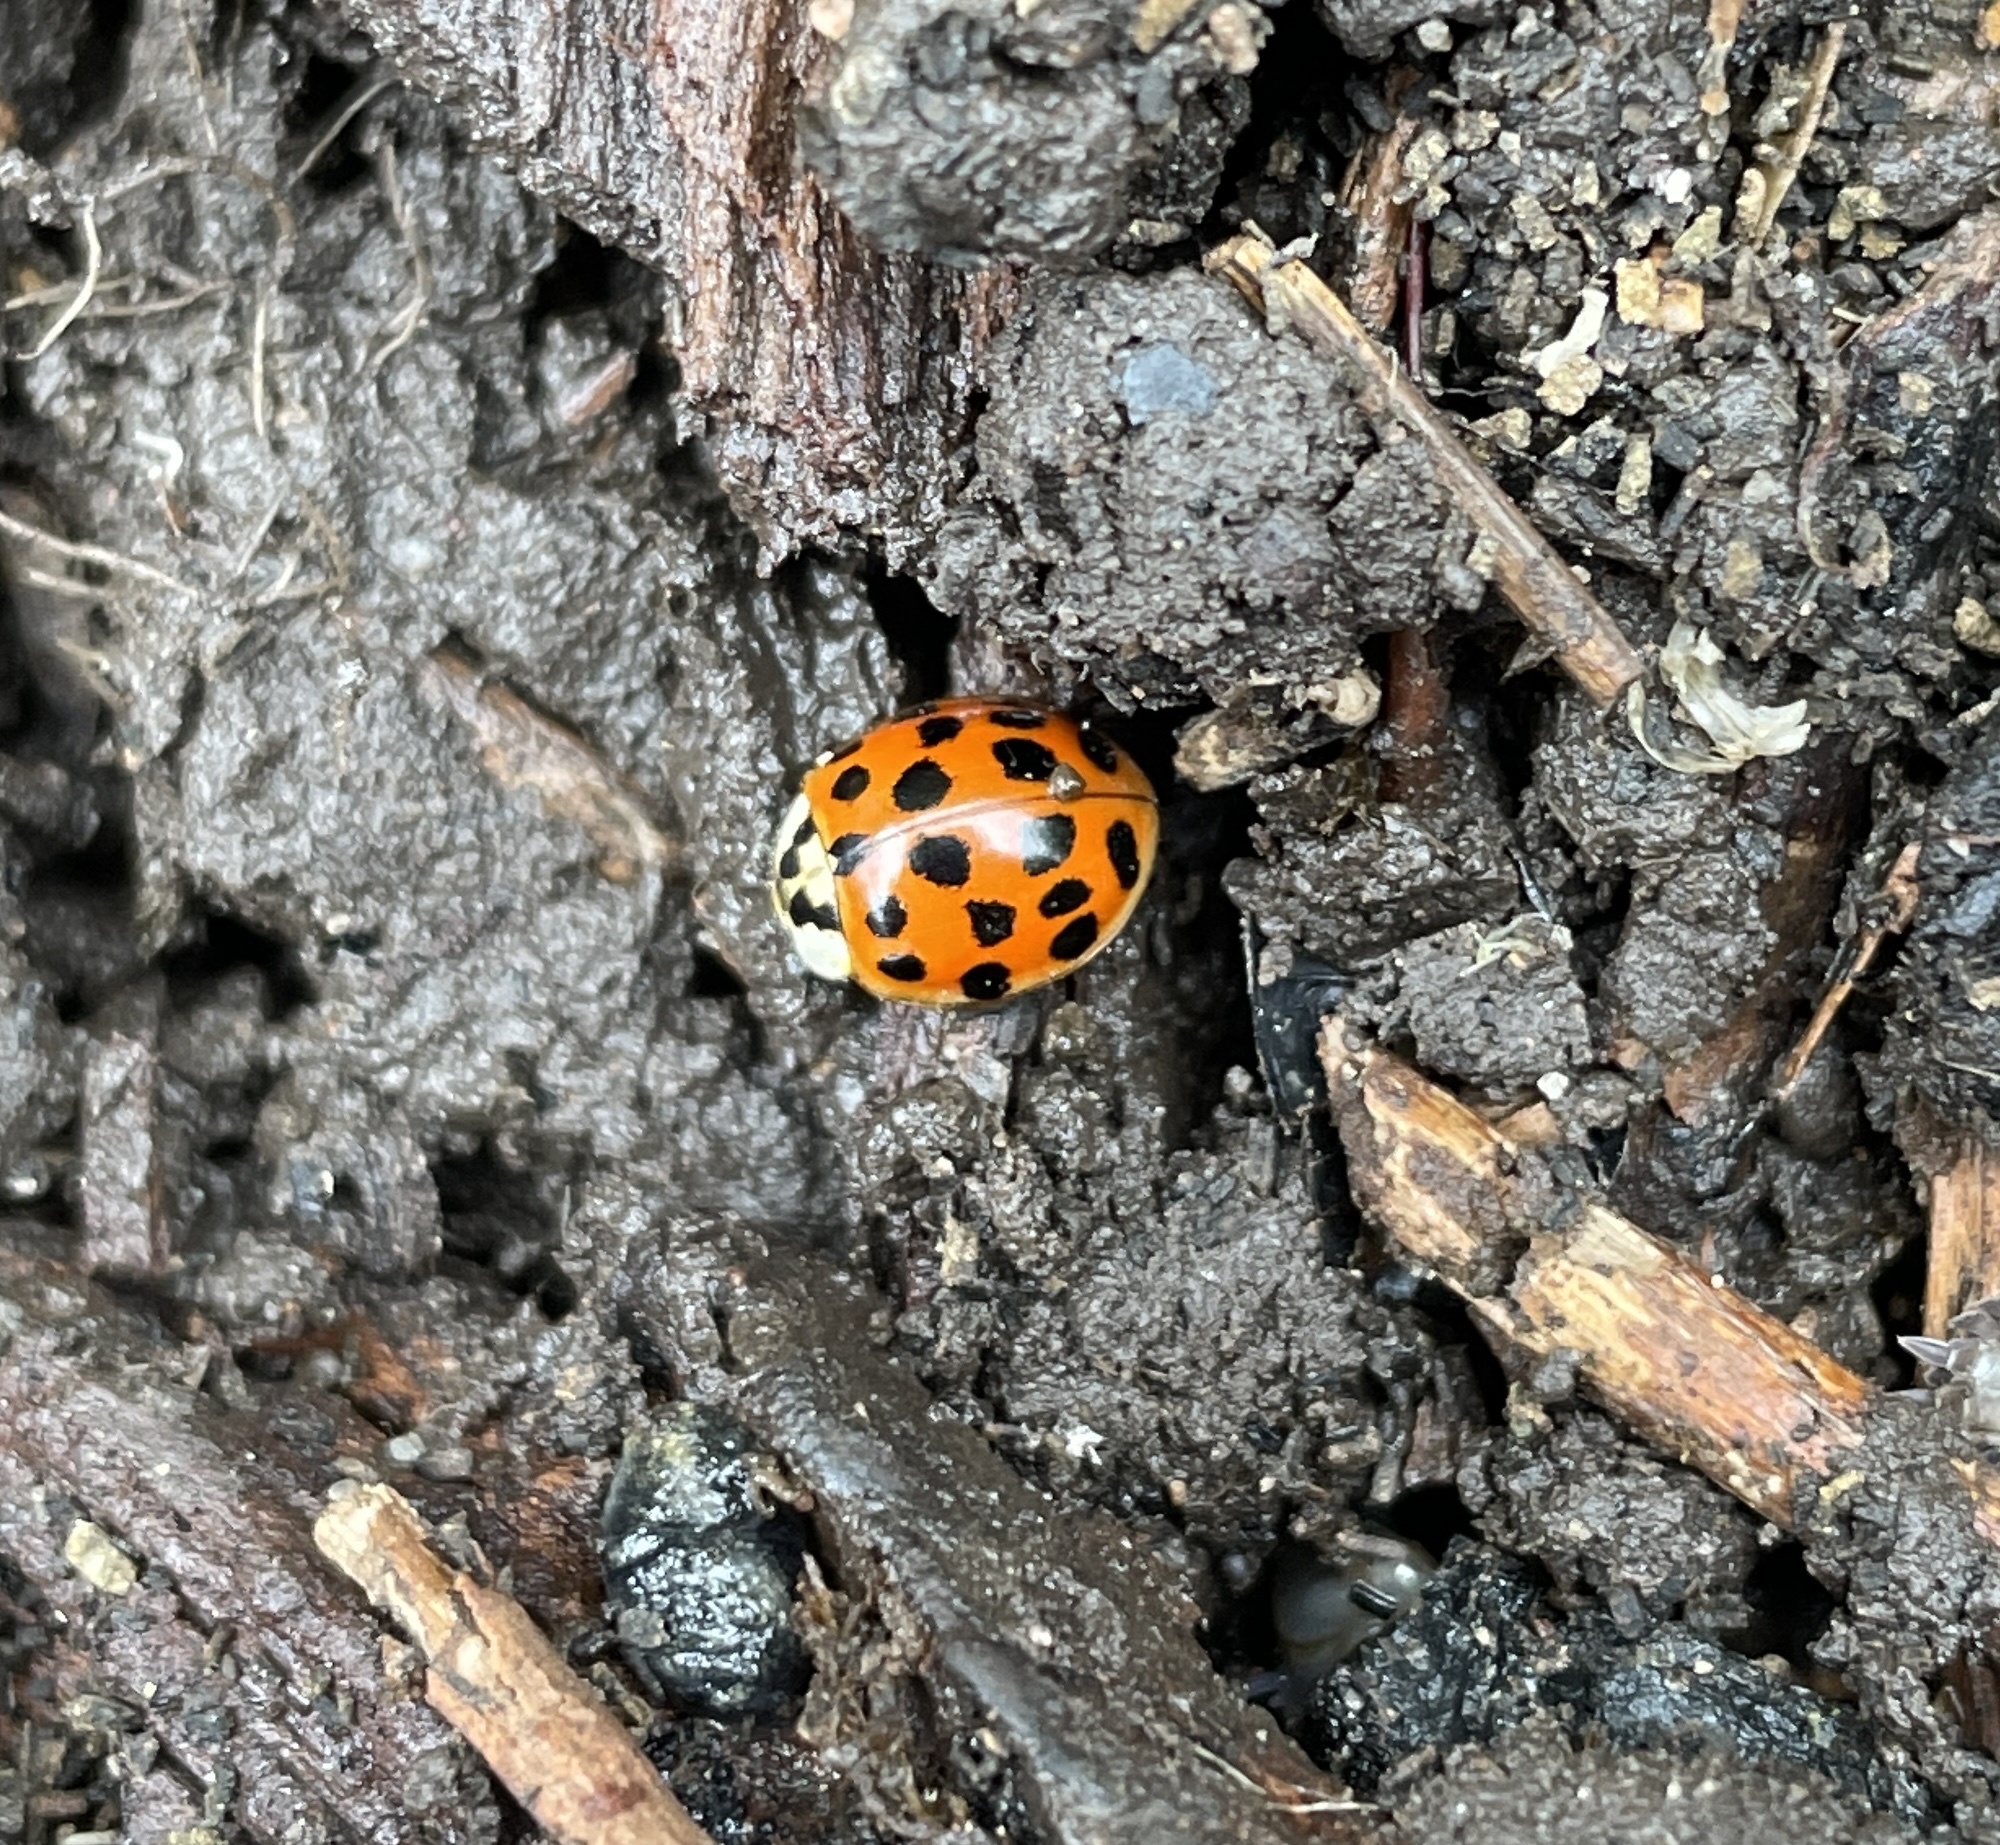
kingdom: Animalia
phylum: Arthropoda
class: Insecta
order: Coleoptera
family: Coccinellidae
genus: Harmonia
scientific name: Harmonia axyridis
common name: Harlequin ladybird
